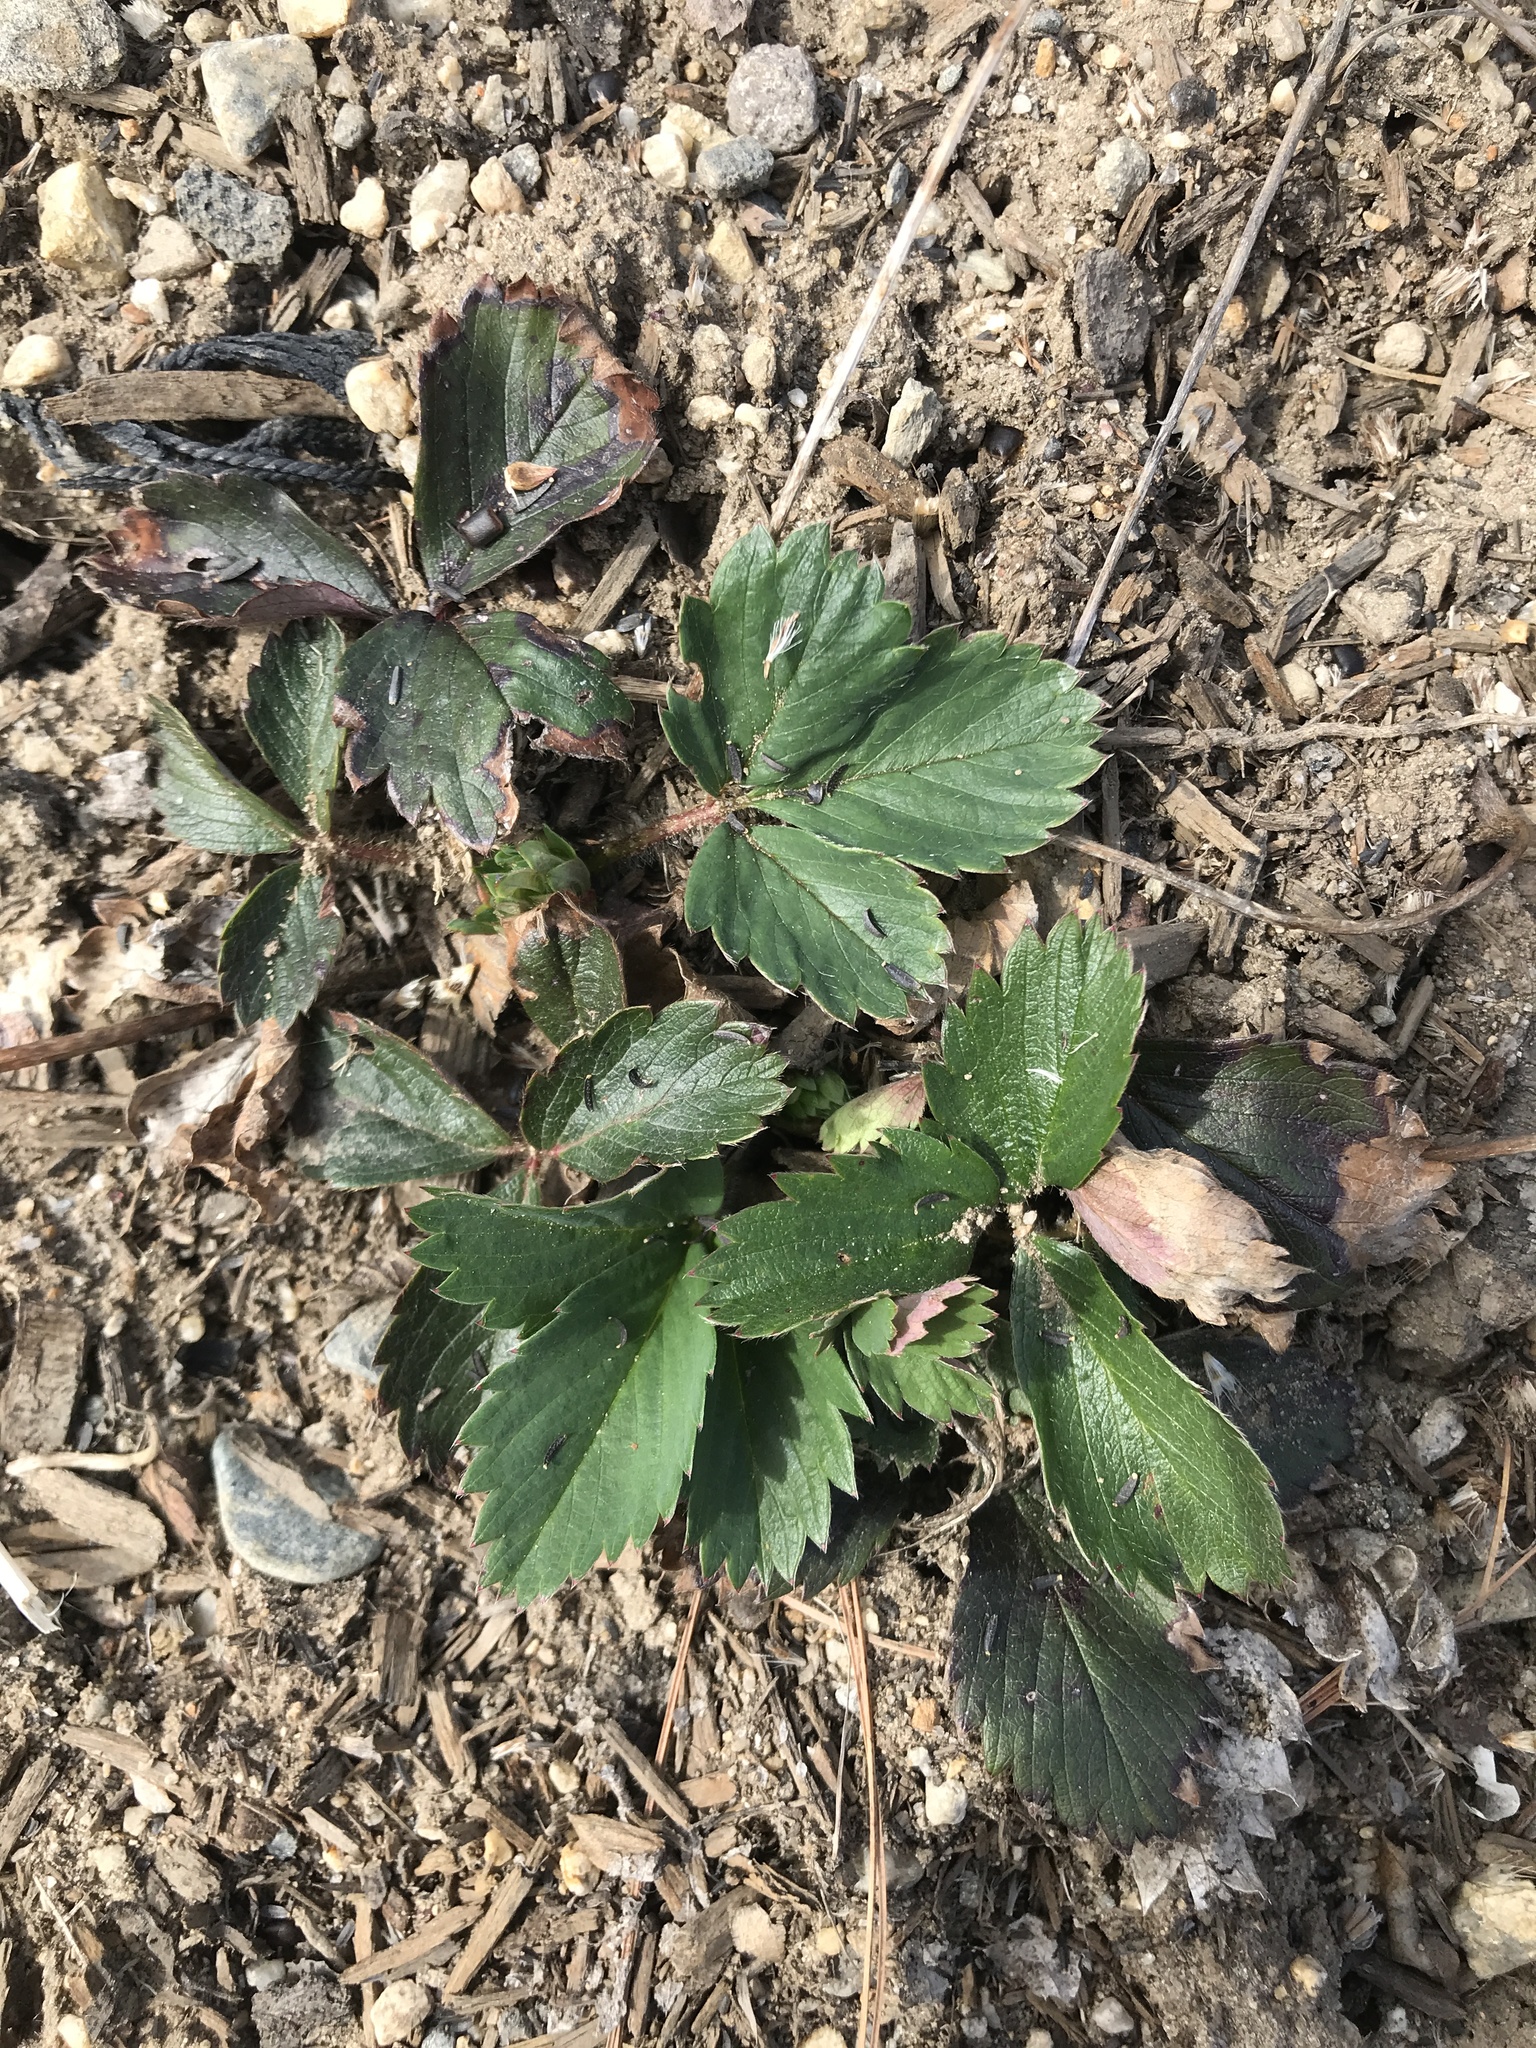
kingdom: Plantae
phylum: Tracheophyta
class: Magnoliopsida
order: Rosales
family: Rosaceae
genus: Fragaria
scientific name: Fragaria virginiana
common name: Thickleaved wild strawberry
